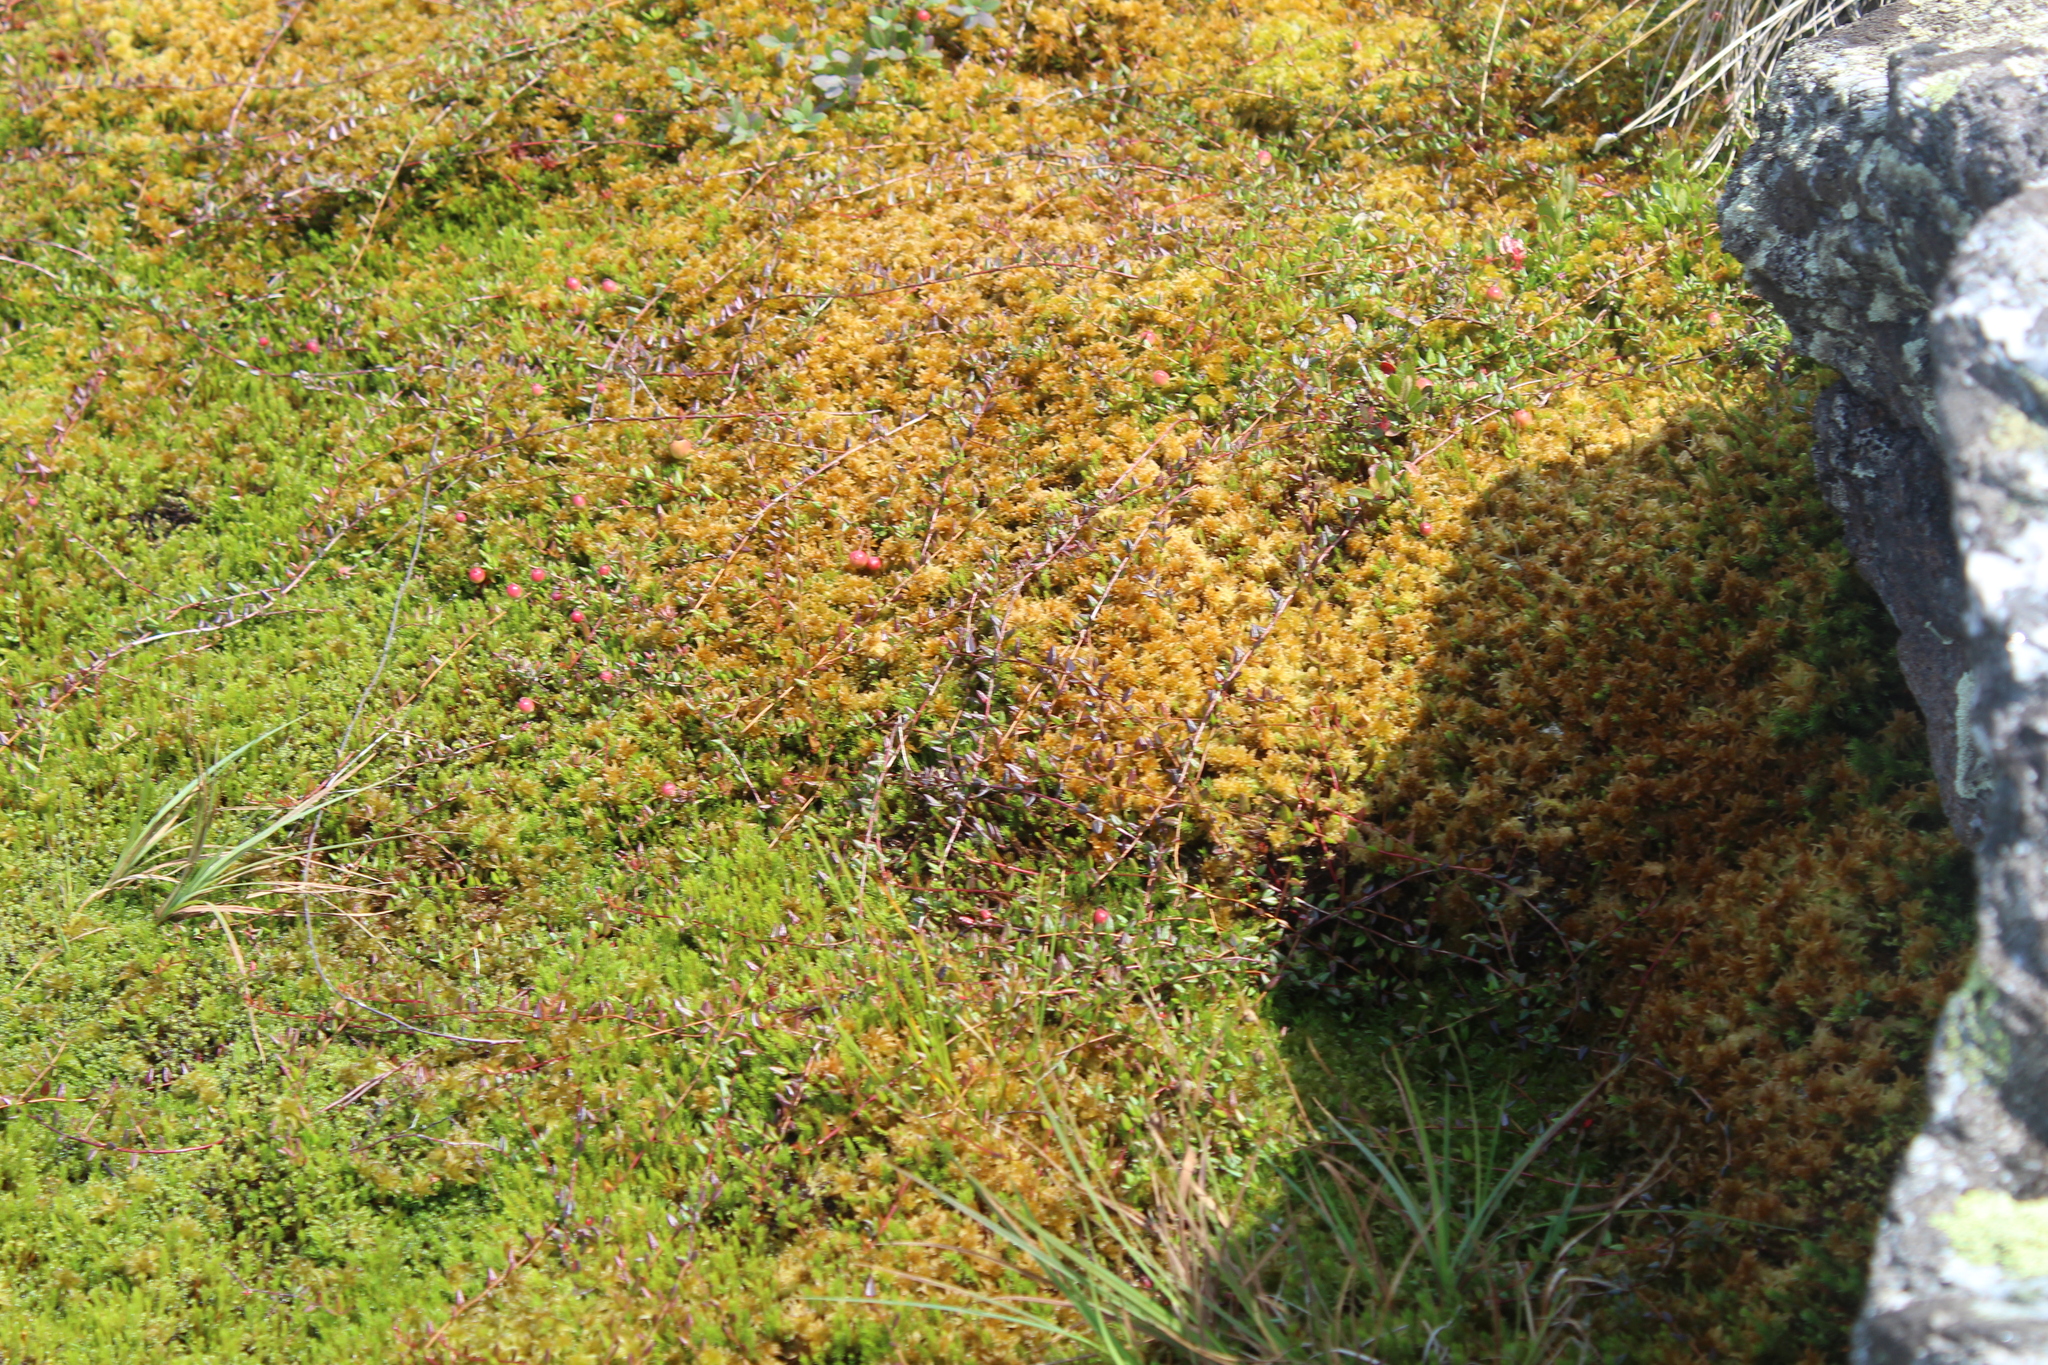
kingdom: Plantae
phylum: Tracheophyta
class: Magnoliopsida
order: Ericales
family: Ericaceae
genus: Vaccinium
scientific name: Vaccinium oxycoccos
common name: Cranberry
